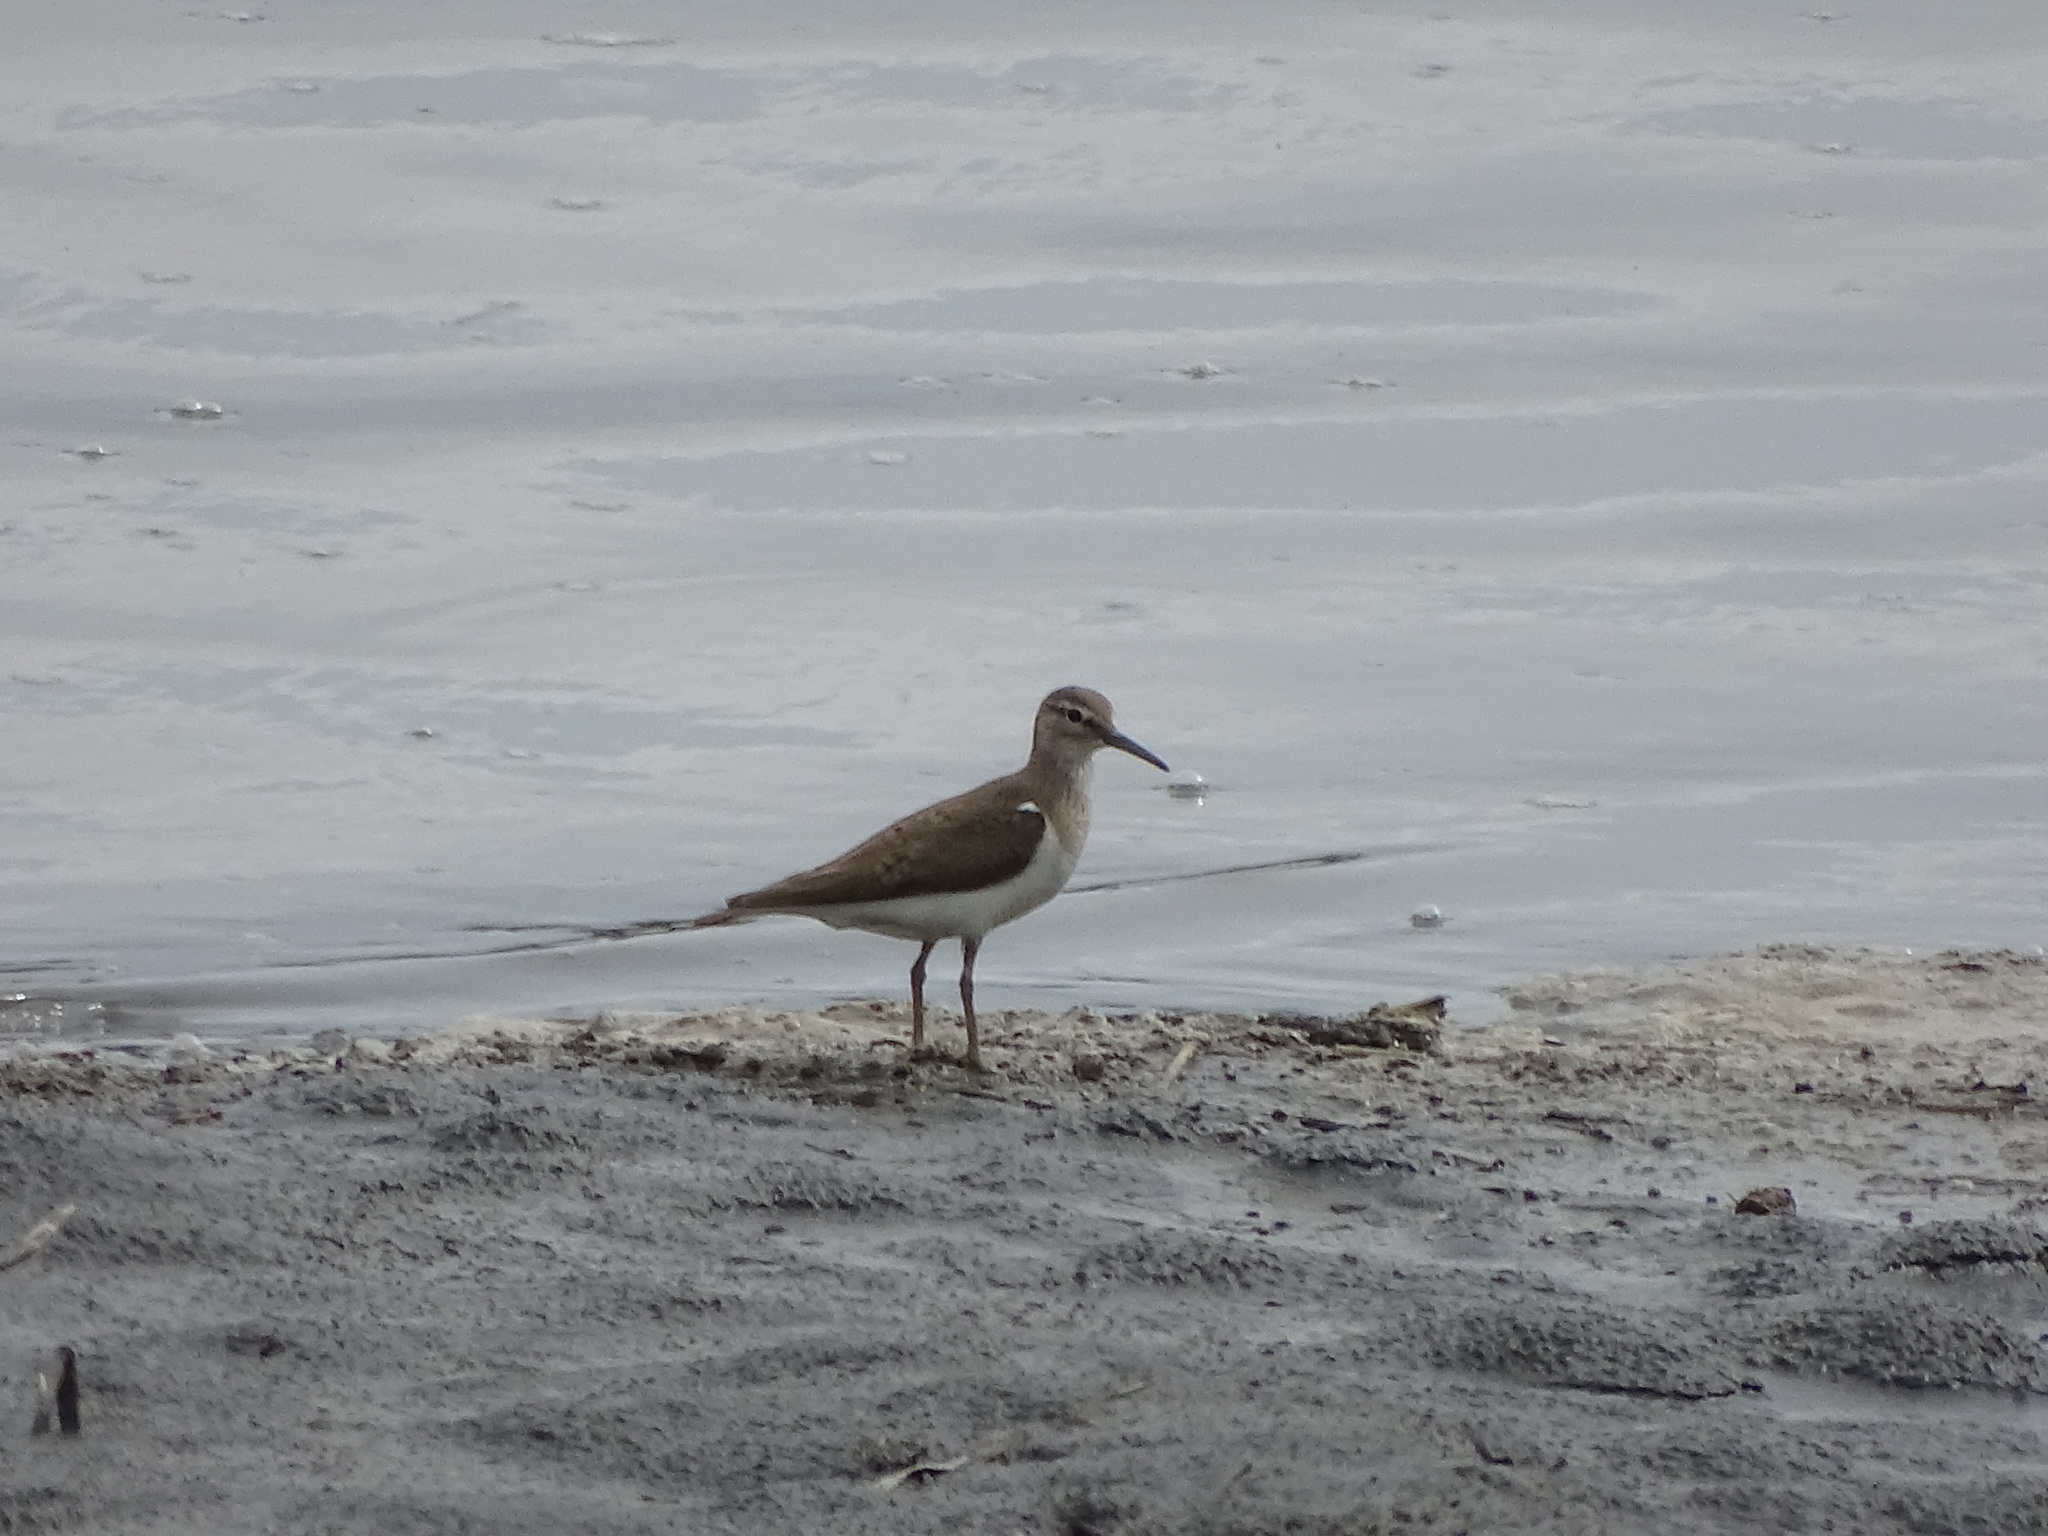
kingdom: Animalia
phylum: Chordata
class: Aves
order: Charadriiformes
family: Scolopacidae
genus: Actitis
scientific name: Actitis hypoleucos
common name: Common sandpiper
